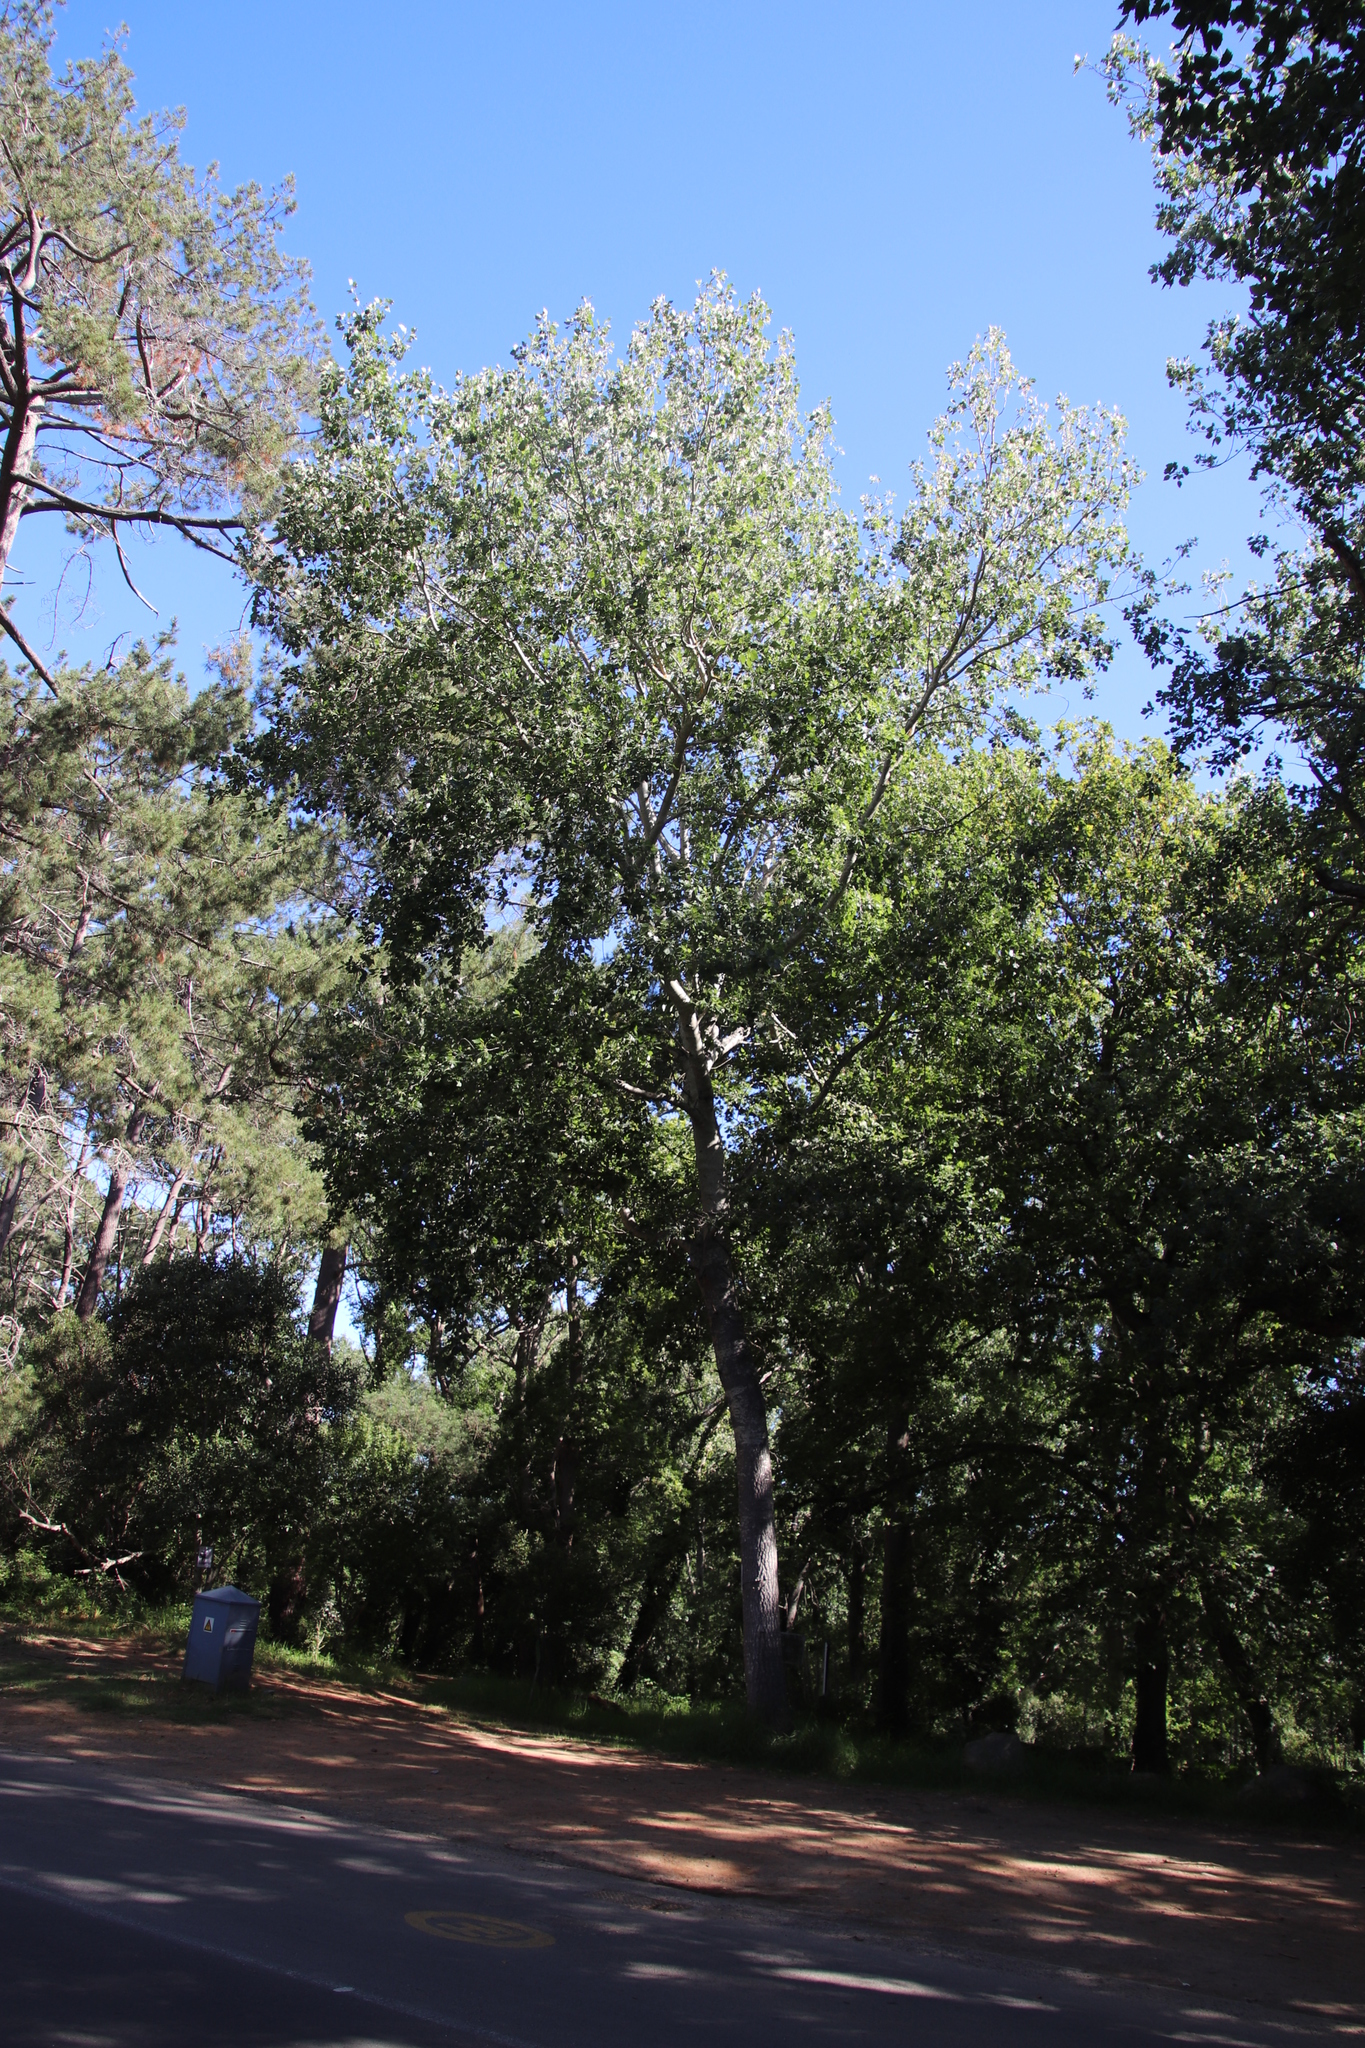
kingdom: Plantae
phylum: Tracheophyta
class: Magnoliopsida
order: Malpighiales
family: Salicaceae
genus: Populus
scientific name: Populus canescens
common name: Gray poplar
